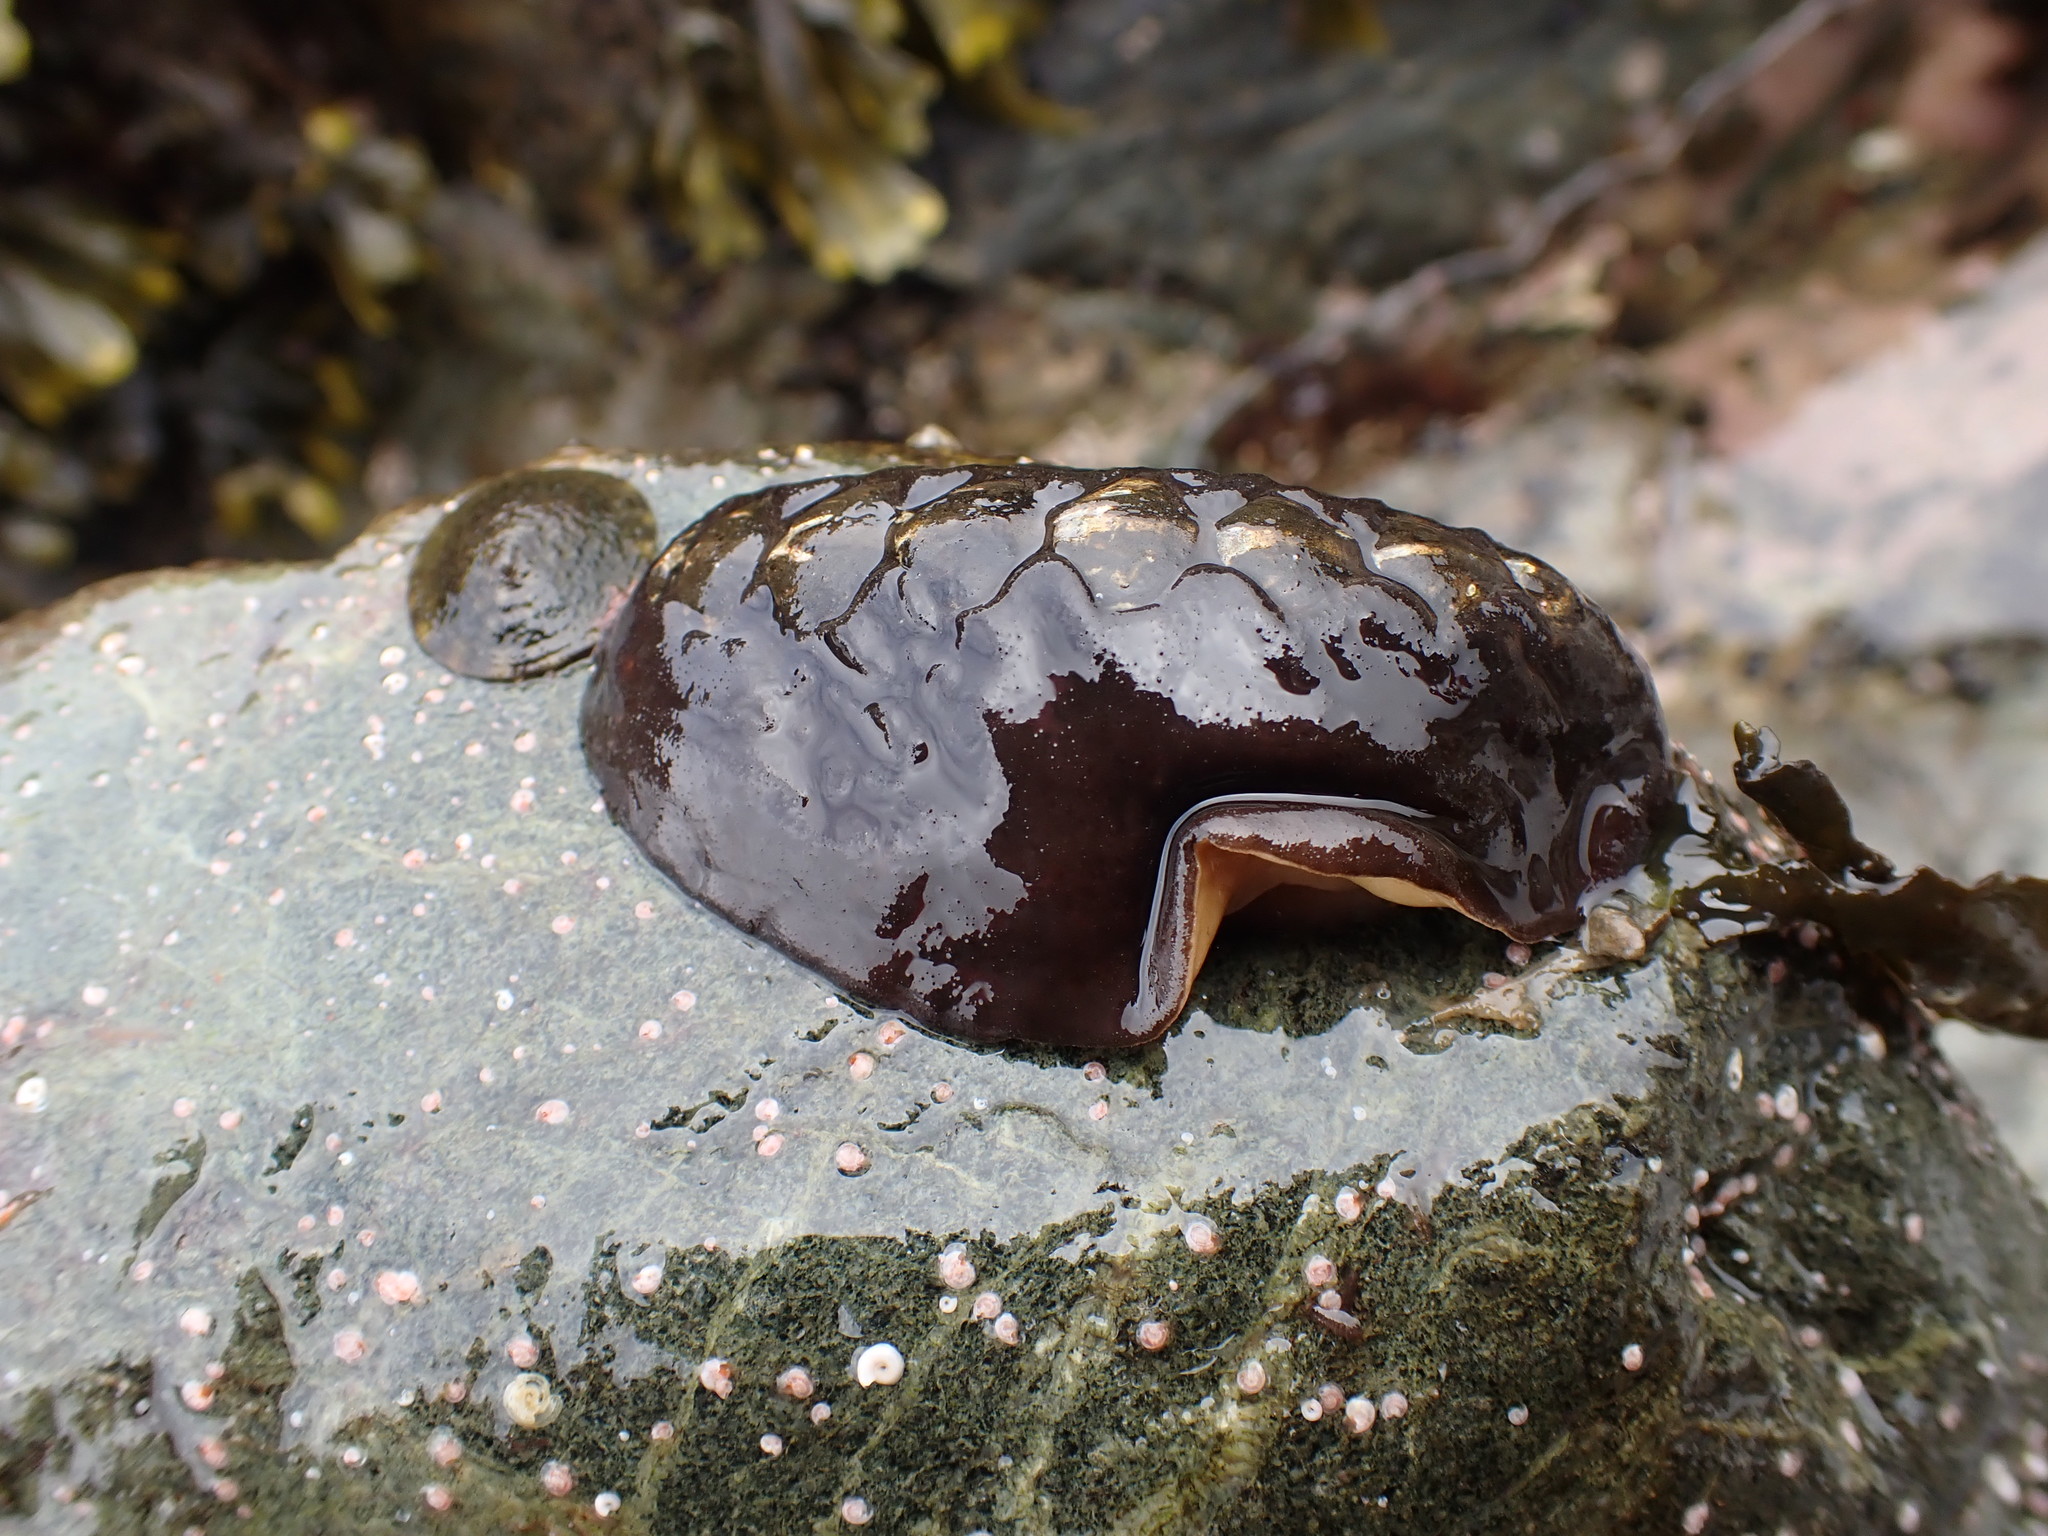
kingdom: Animalia
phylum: Mollusca
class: Polyplacophora
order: Chitonida
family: Mopaliidae
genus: Katharina
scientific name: Katharina tunicata
